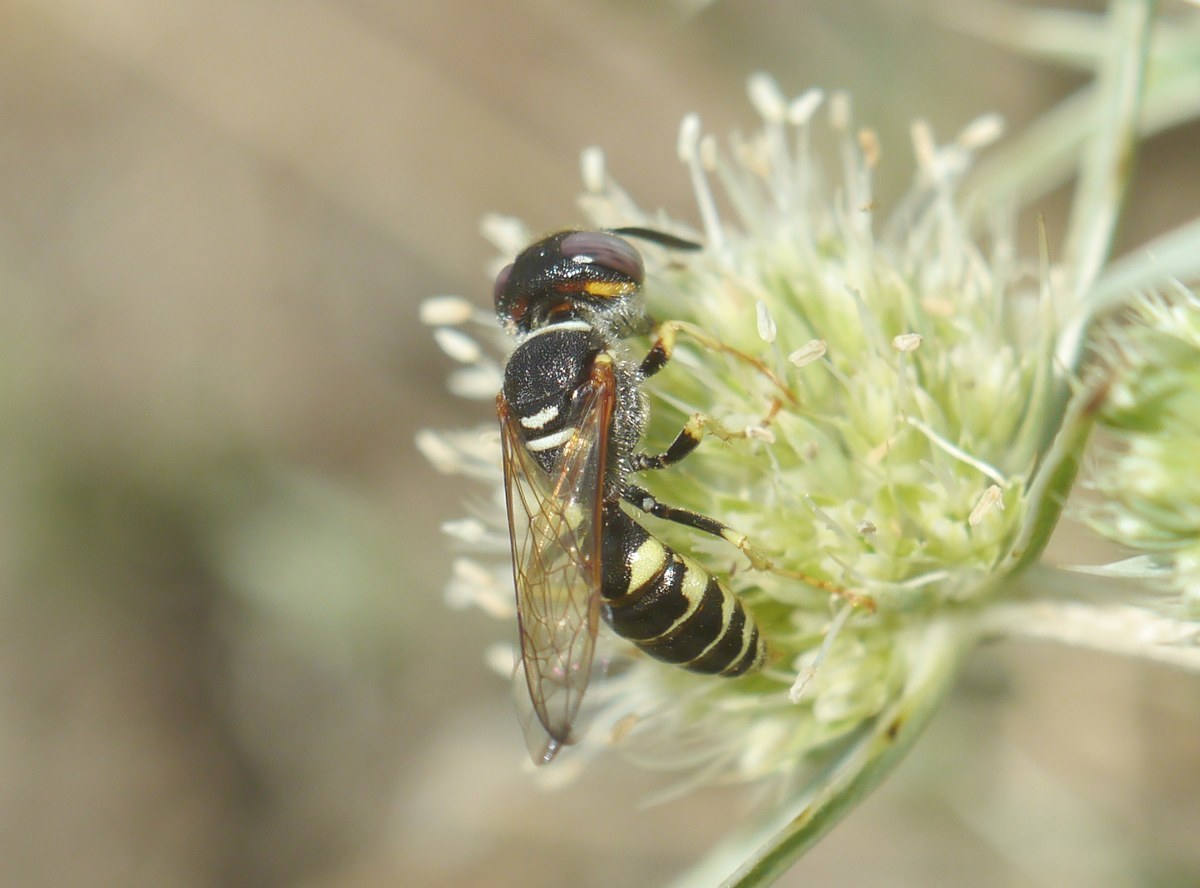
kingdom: Animalia
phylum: Arthropoda
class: Insecta
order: Hymenoptera
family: Crabronidae
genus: Philanthus
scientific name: Philanthus triangulum
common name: Bee wolf
